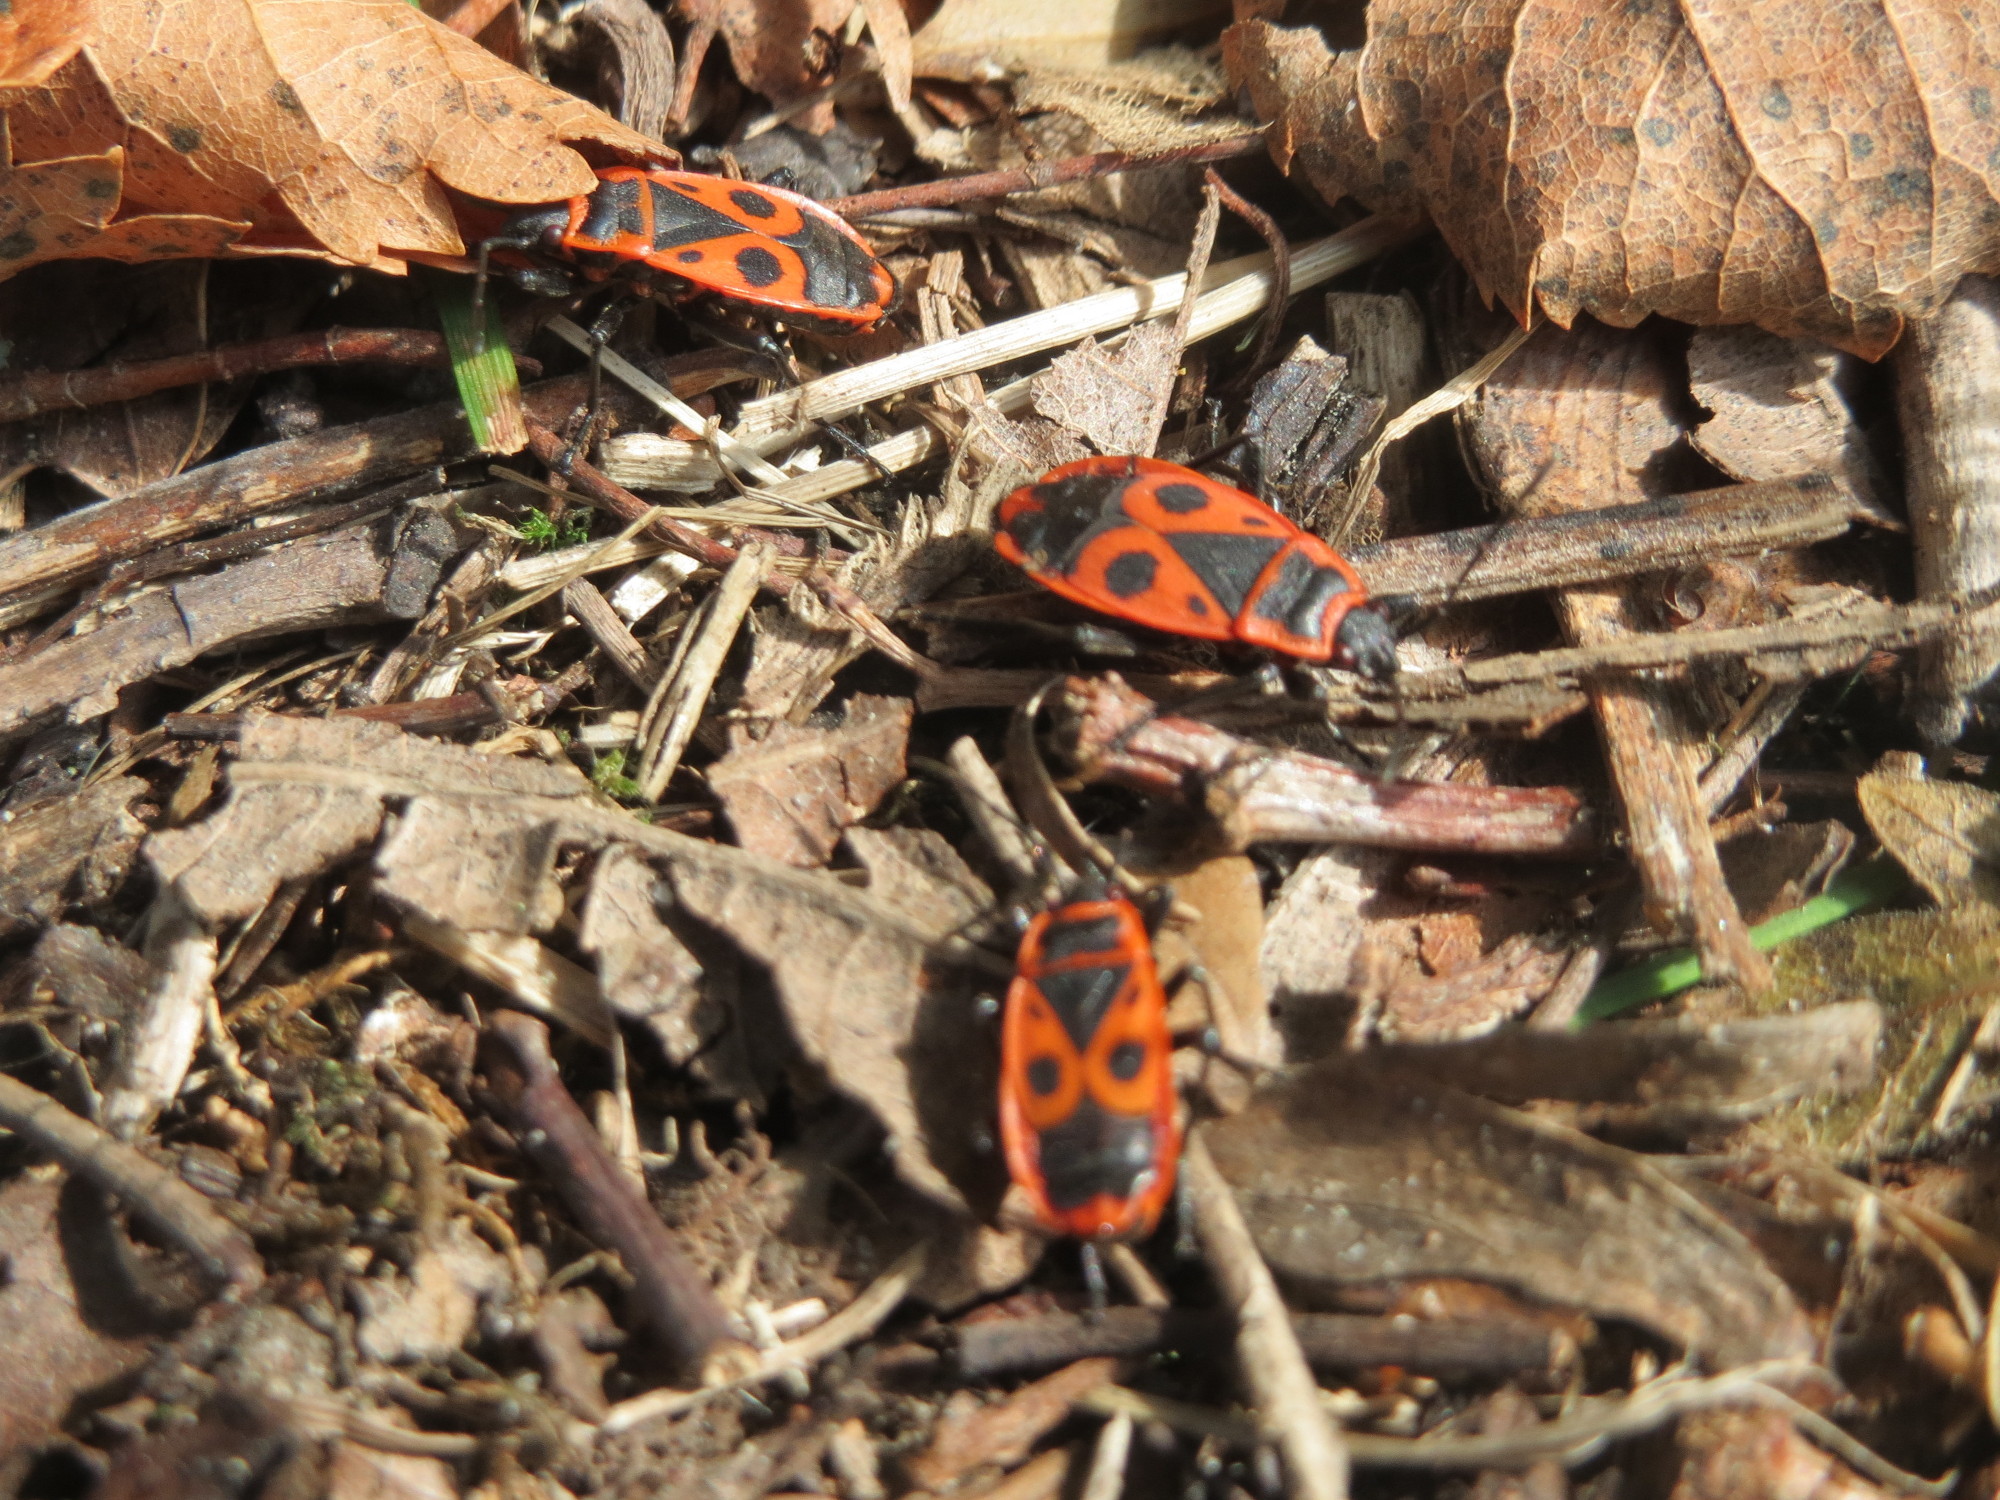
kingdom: Animalia
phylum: Arthropoda
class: Insecta
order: Hemiptera
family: Pyrrhocoridae
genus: Pyrrhocoris
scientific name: Pyrrhocoris apterus
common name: Firebug
